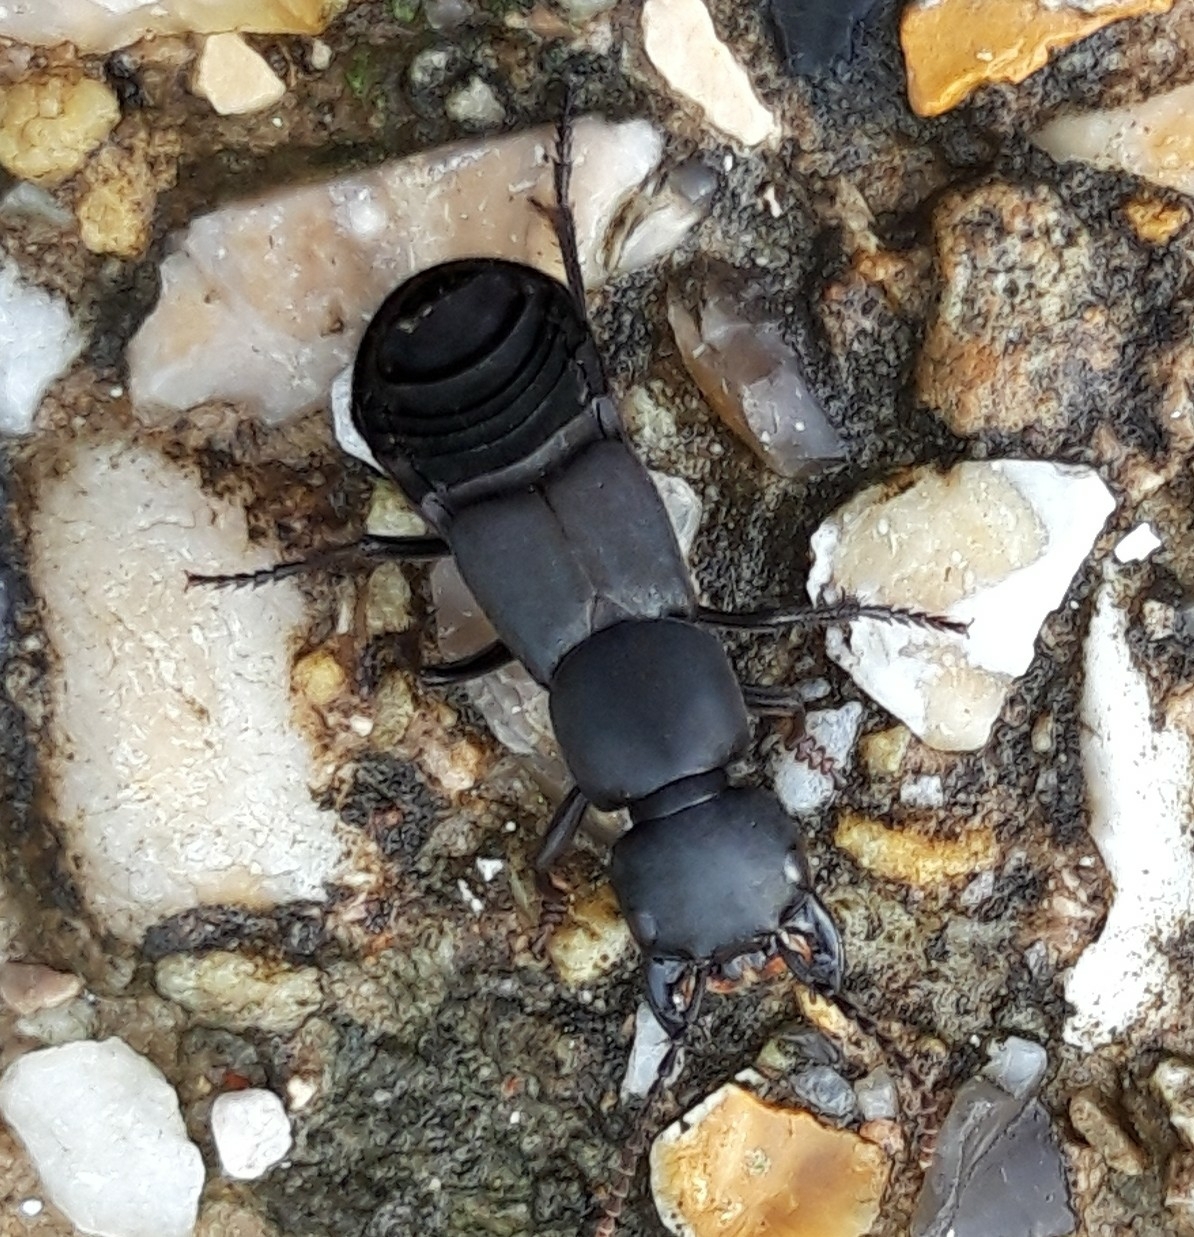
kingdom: Animalia
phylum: Arthropoda
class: Insecta
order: Coleoptera
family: Staphylinidae
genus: Ocypus
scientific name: Ocypus olens
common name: Devil's coach-horse
